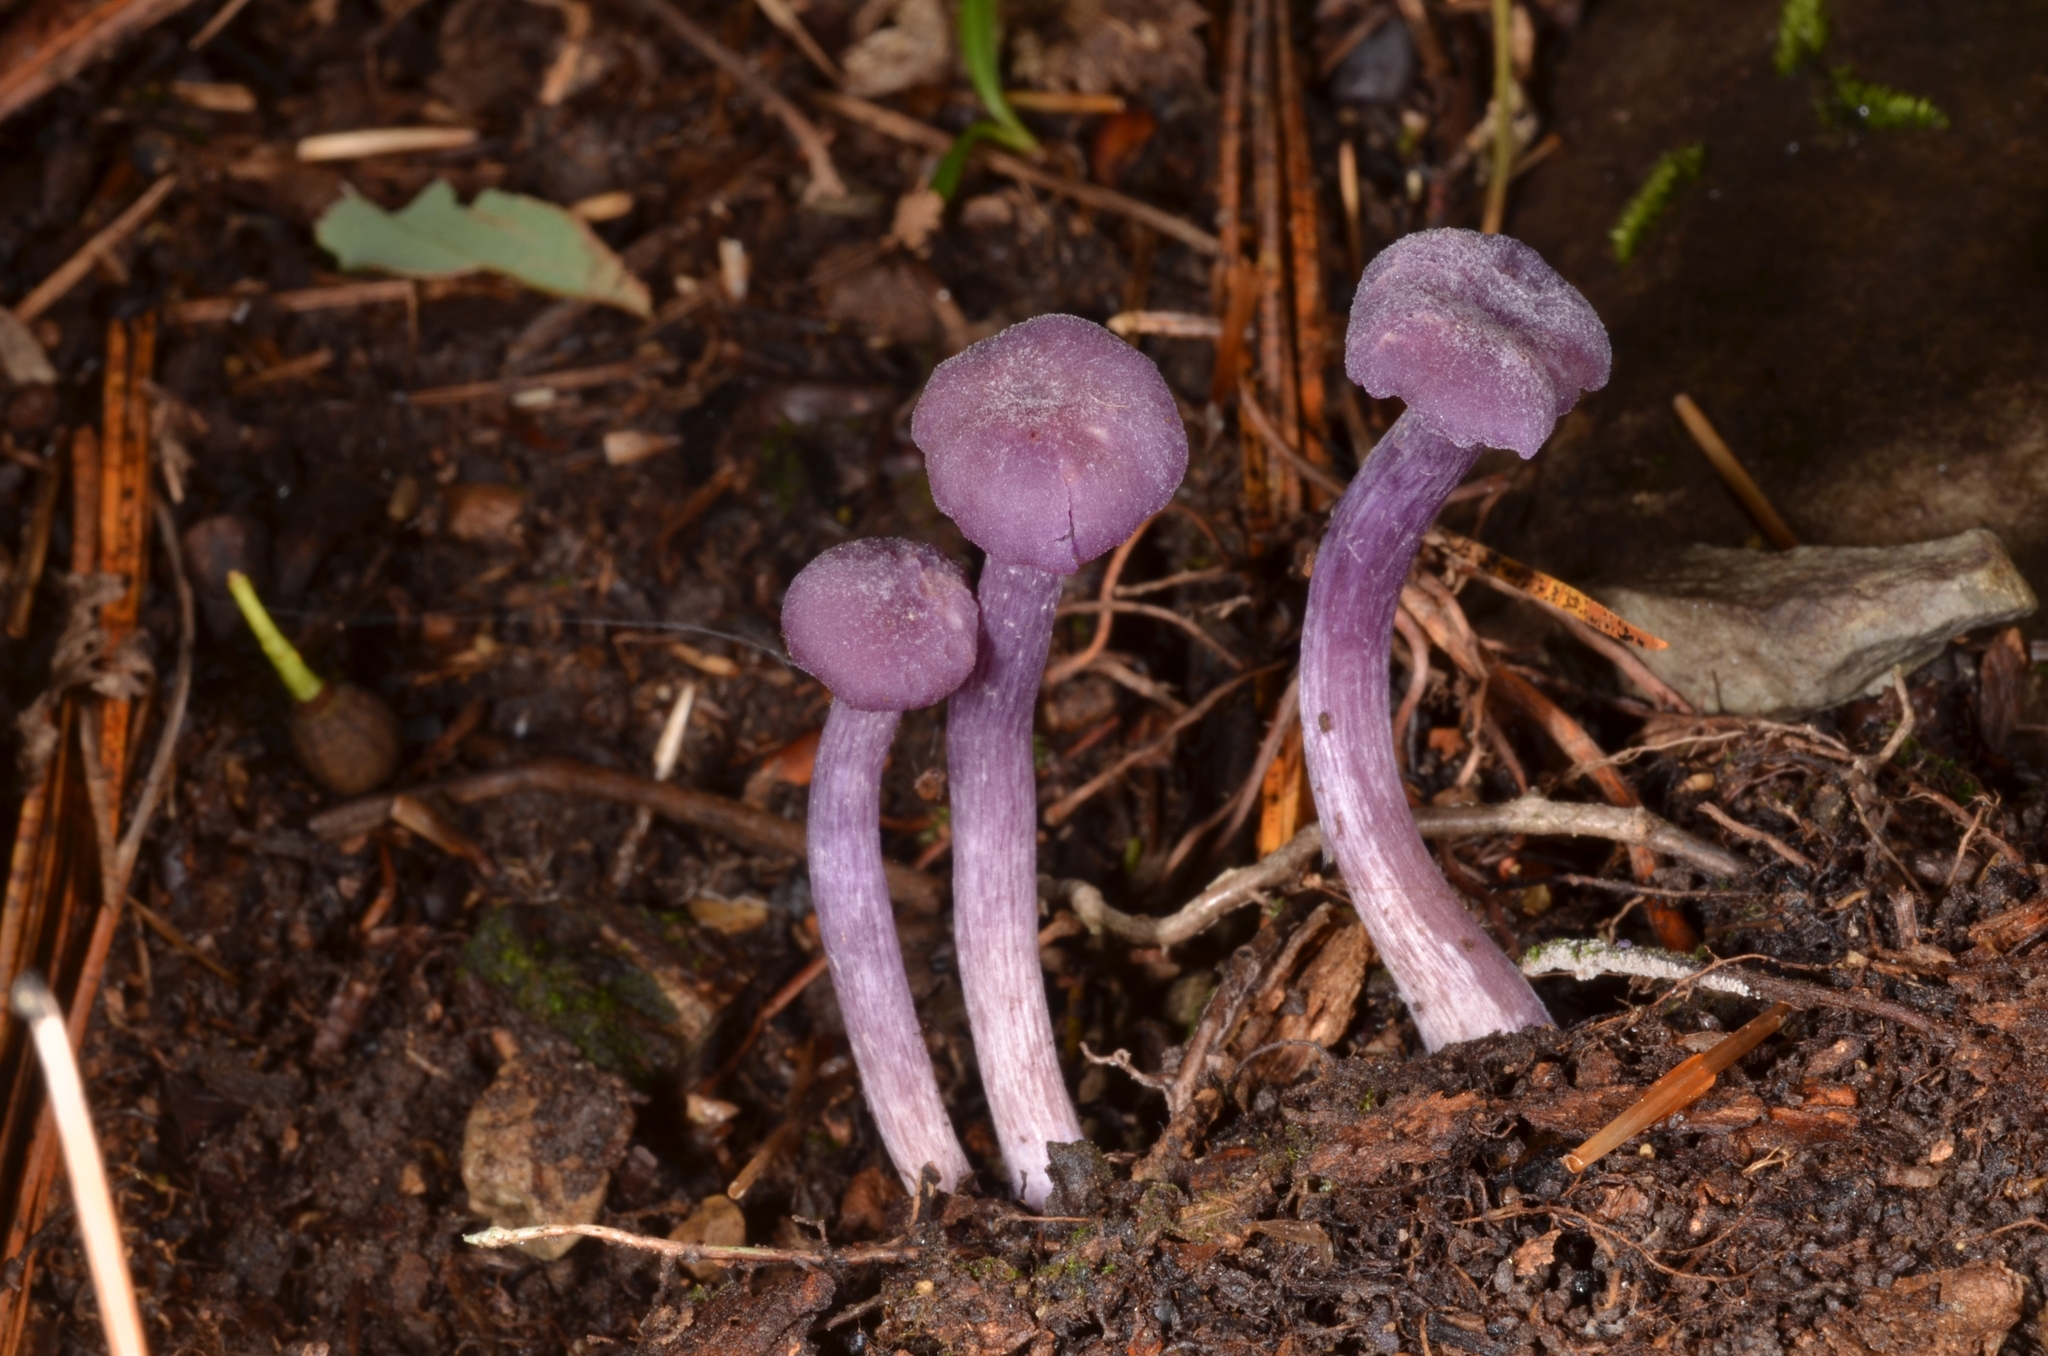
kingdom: Fungi
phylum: Basidiomycota
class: Agaricomycetes
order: Agaricales
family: Hydnangiaceae
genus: Laccaria
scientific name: Laccaria amethystina
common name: Amethyst deceiver
